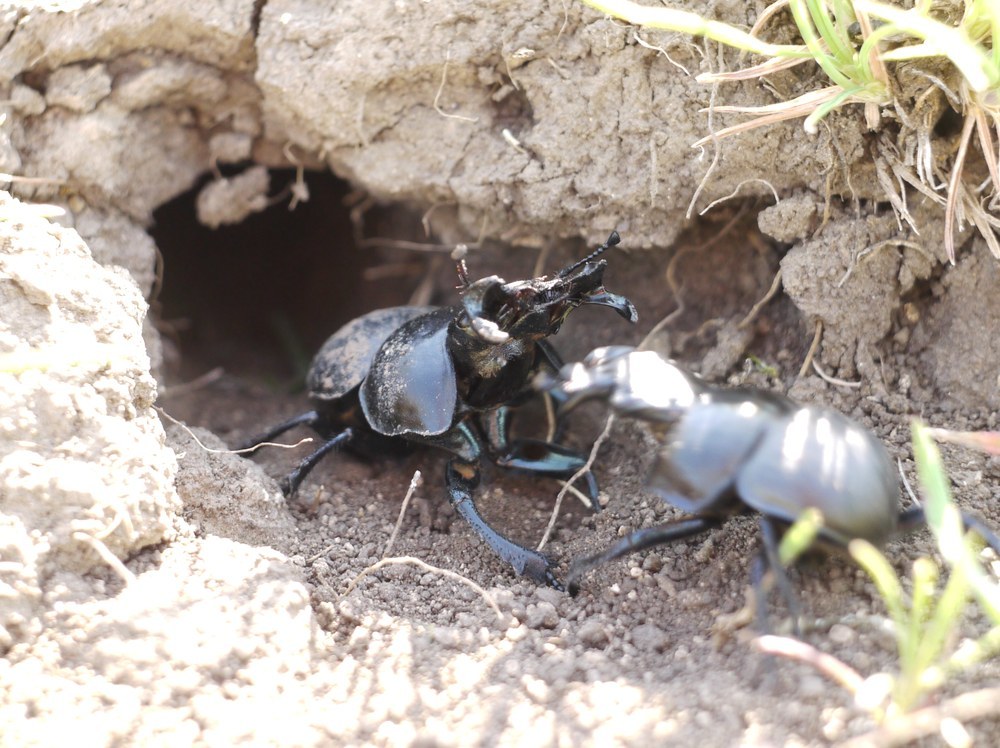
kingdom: Animalia
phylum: Arthropoda
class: Insecta
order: Coleoptera
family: Geotrupidae
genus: Lethrus
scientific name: Lethrus apterus
